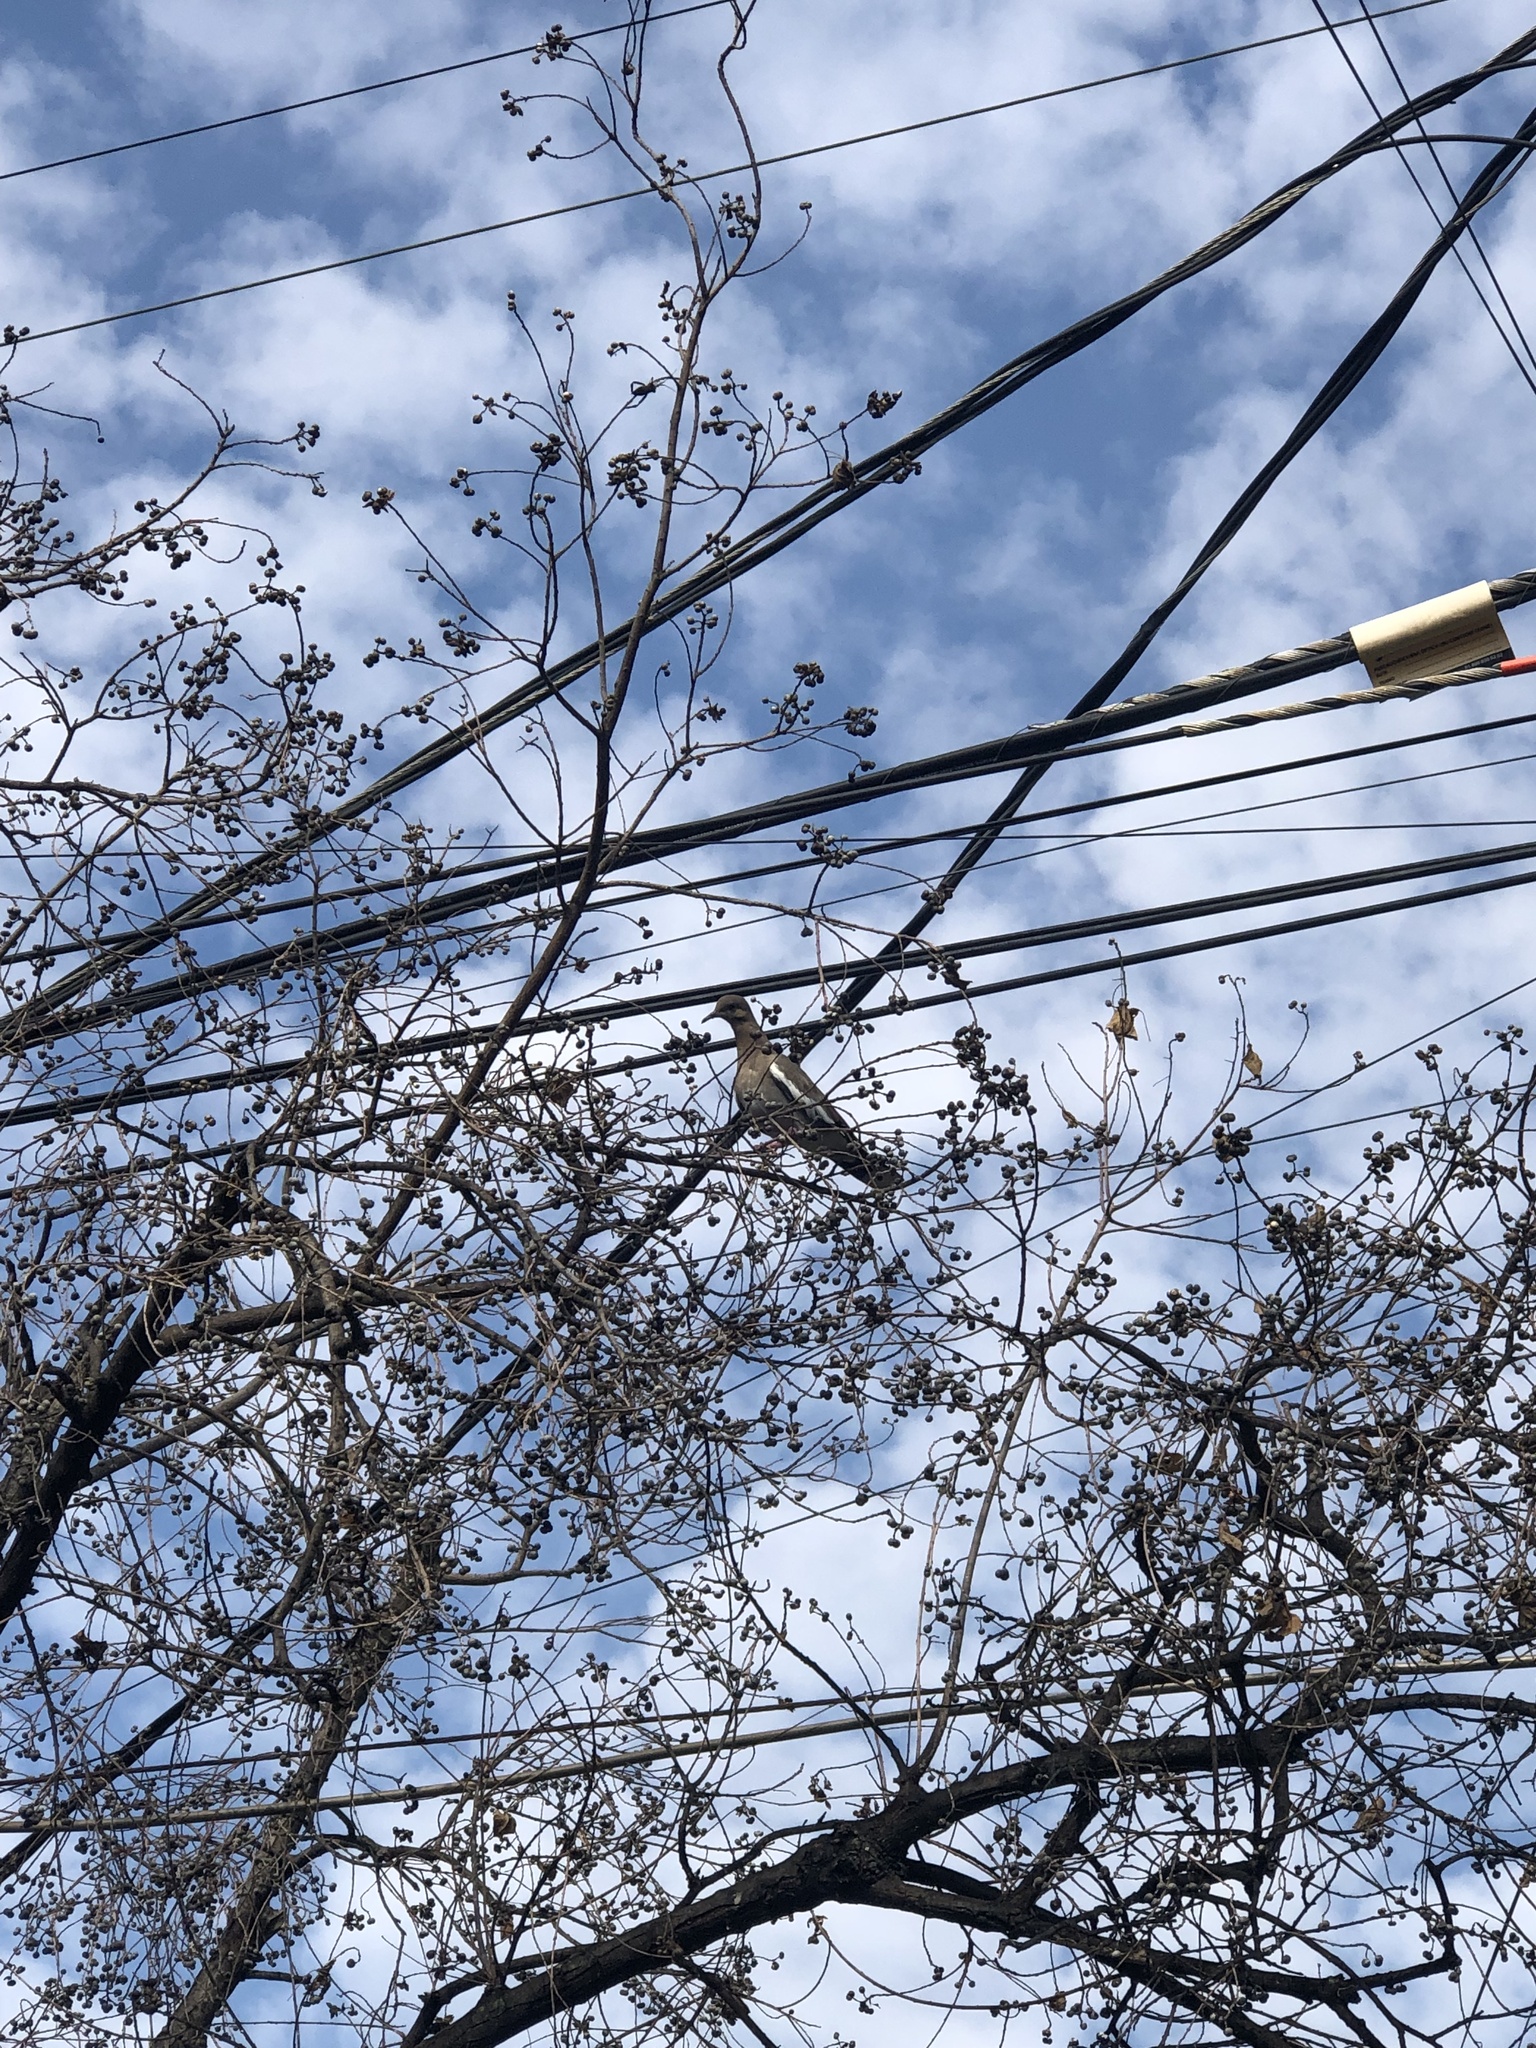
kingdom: Animalia
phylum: Chordata
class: Aves
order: Columbiformes
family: Columbidae
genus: Zenaida
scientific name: Zenaida asiatica
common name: White-winged dove
